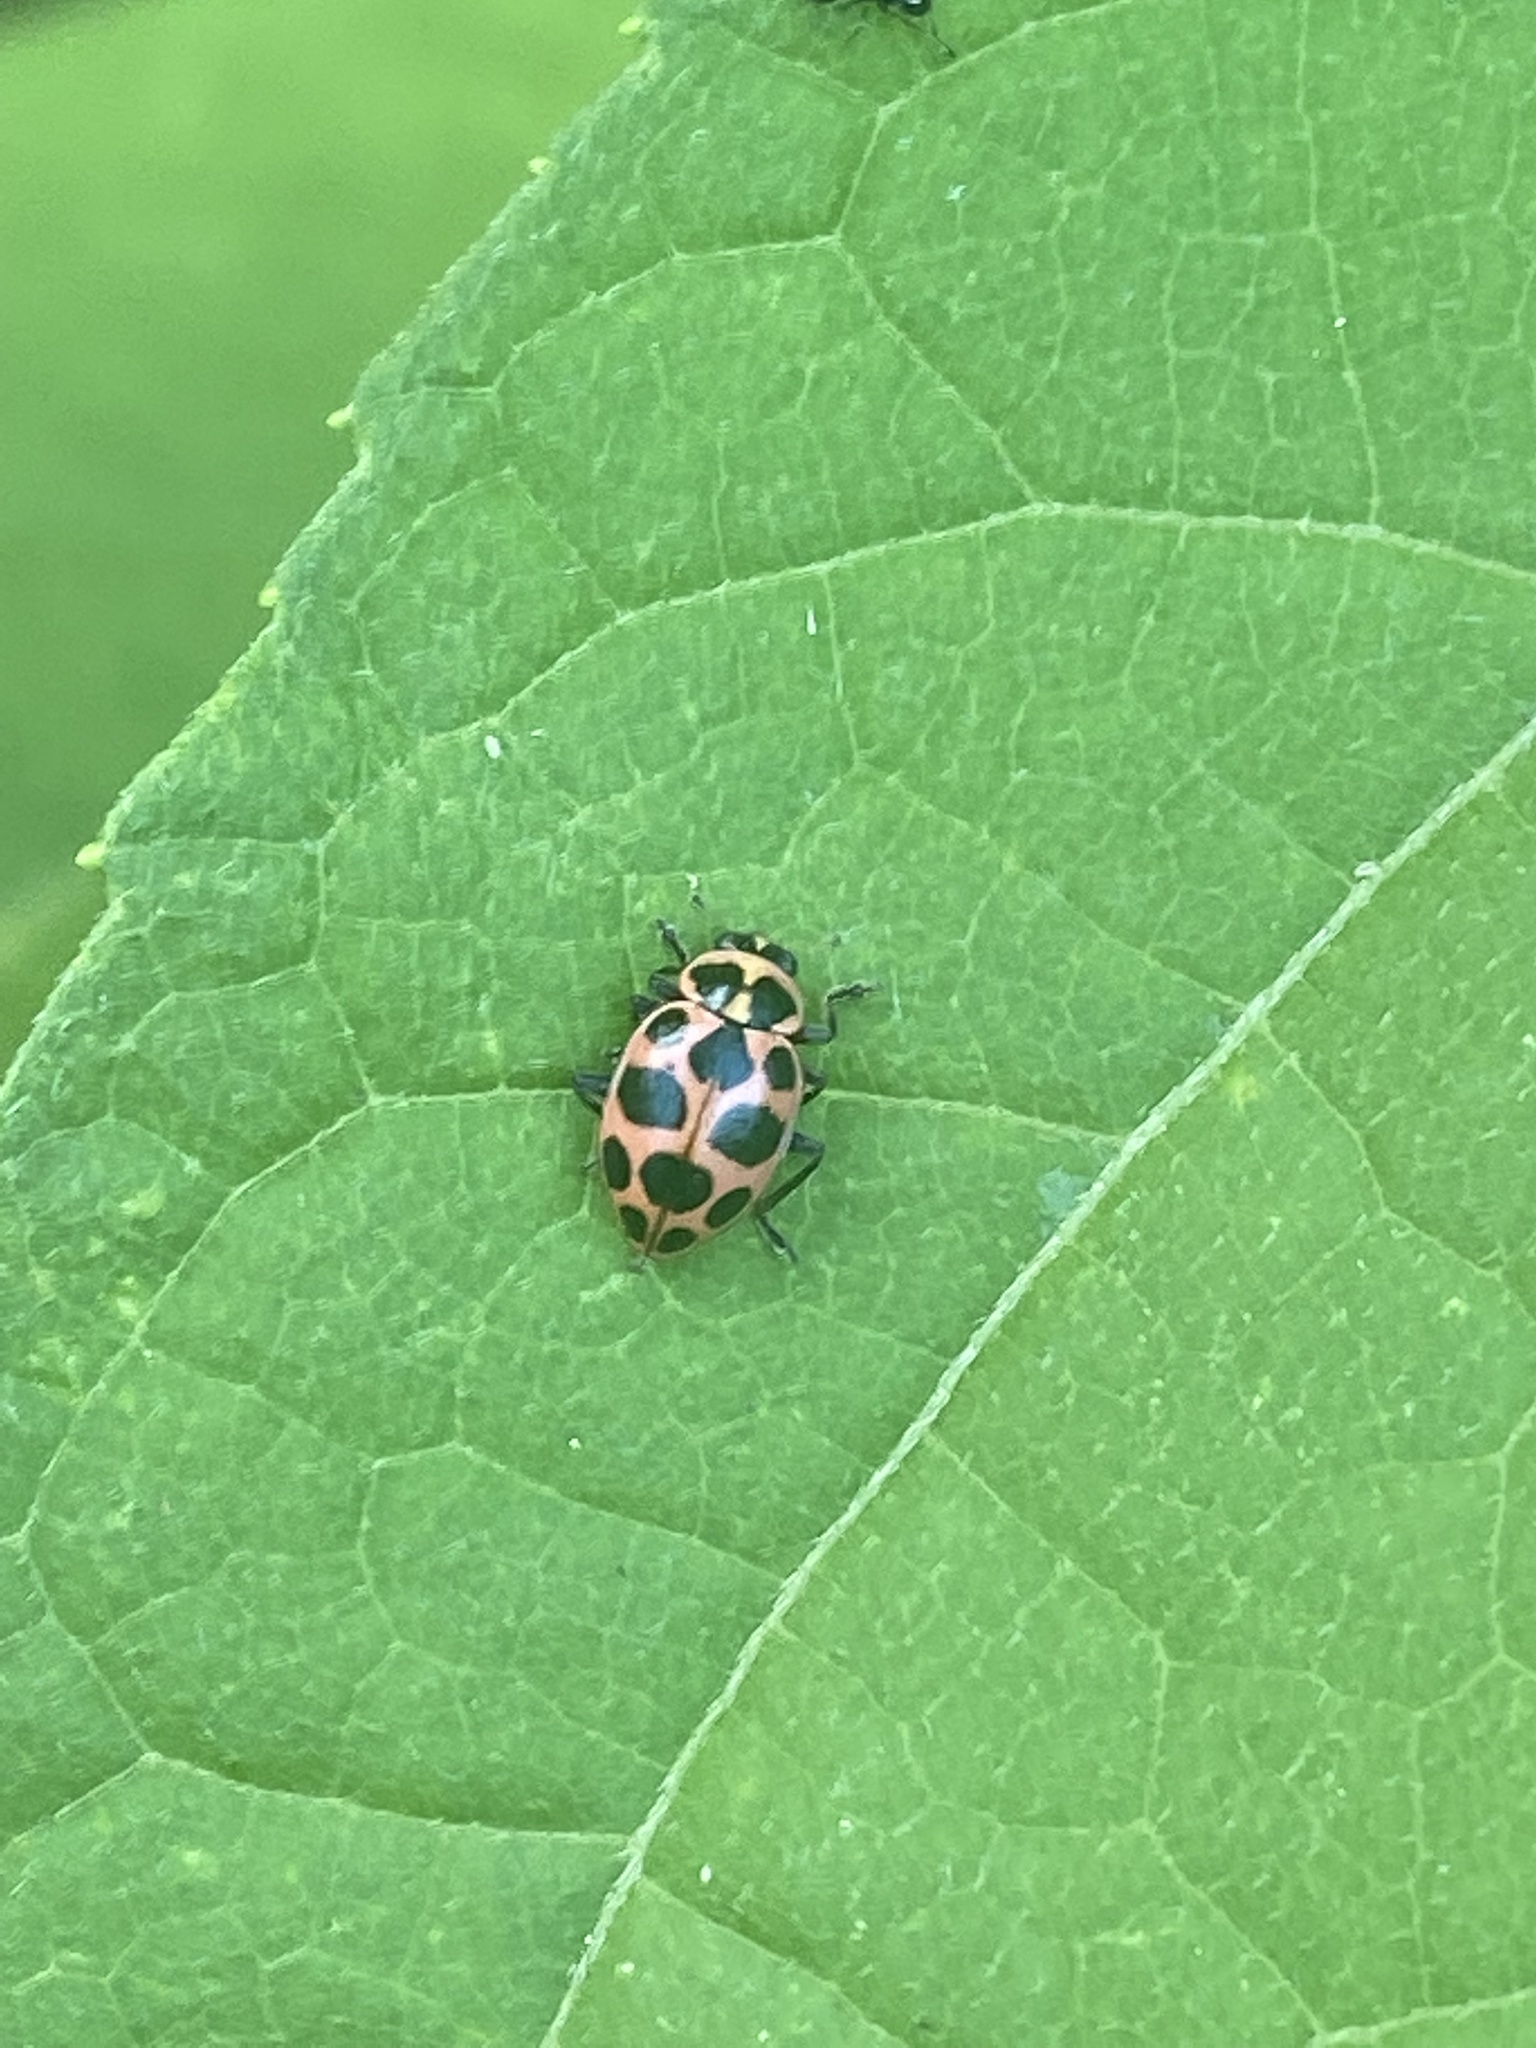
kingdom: Animalia
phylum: Arthropoda
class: Insecta
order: Coleoptera
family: Coccinellidae
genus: Coleomegilla
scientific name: Coleomegilla maculata
